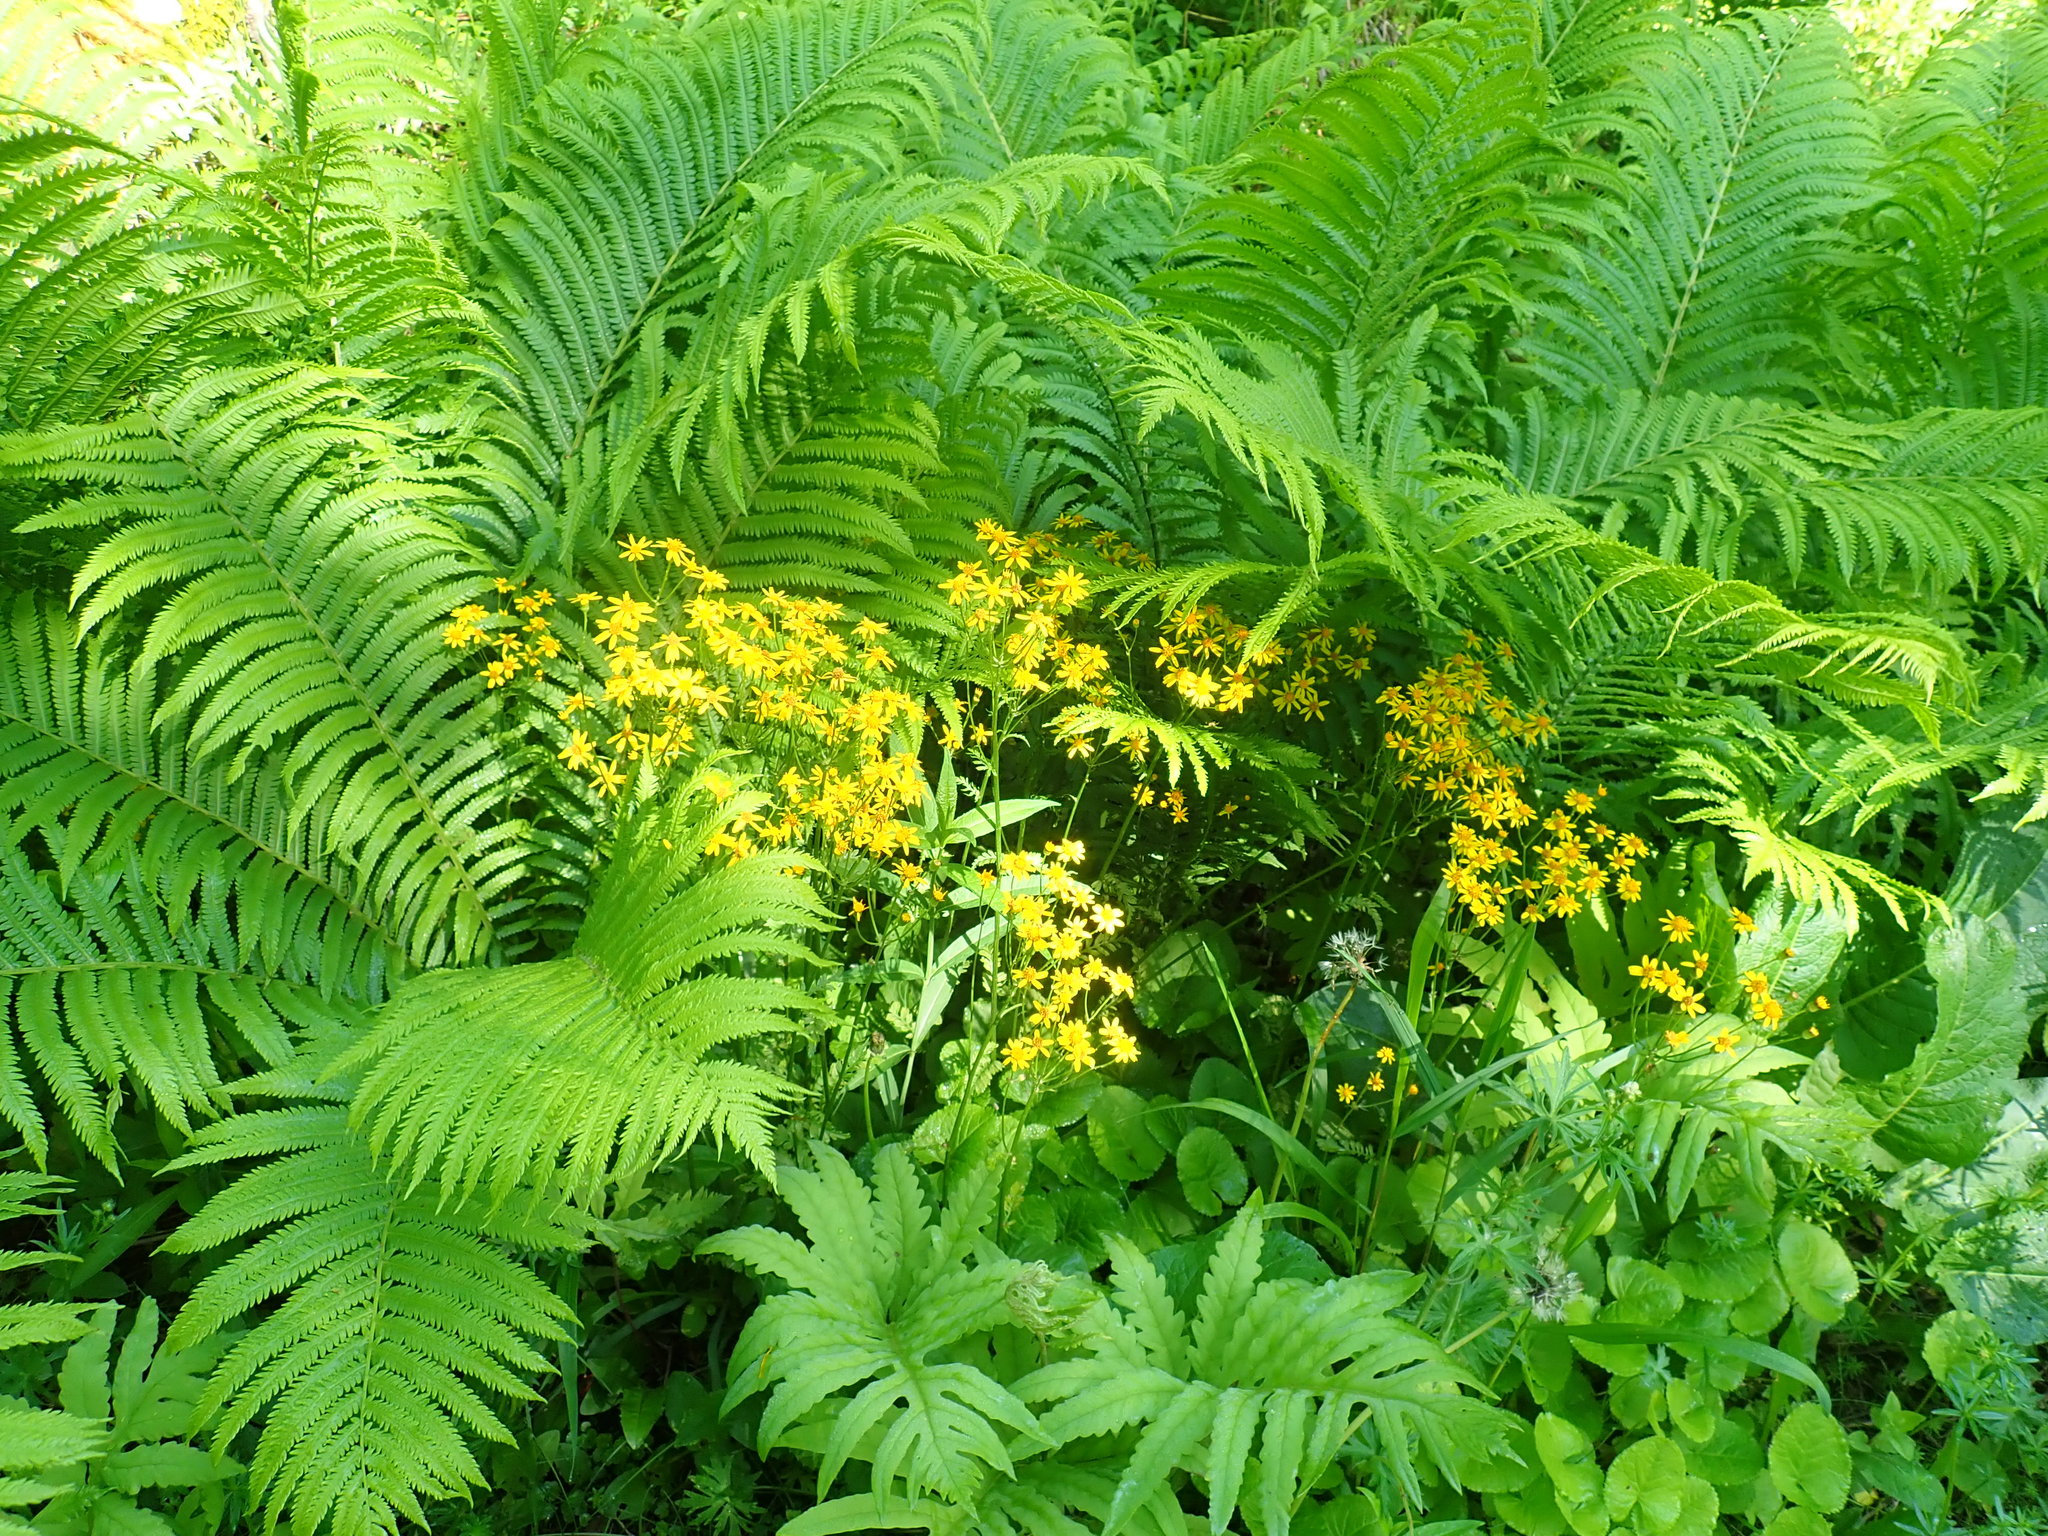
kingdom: Plantae
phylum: Tracheophyta
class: Magnoliopsida
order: Asterales
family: Asteraceae
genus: Packera
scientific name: Packera aurea
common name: Golden groundsel
